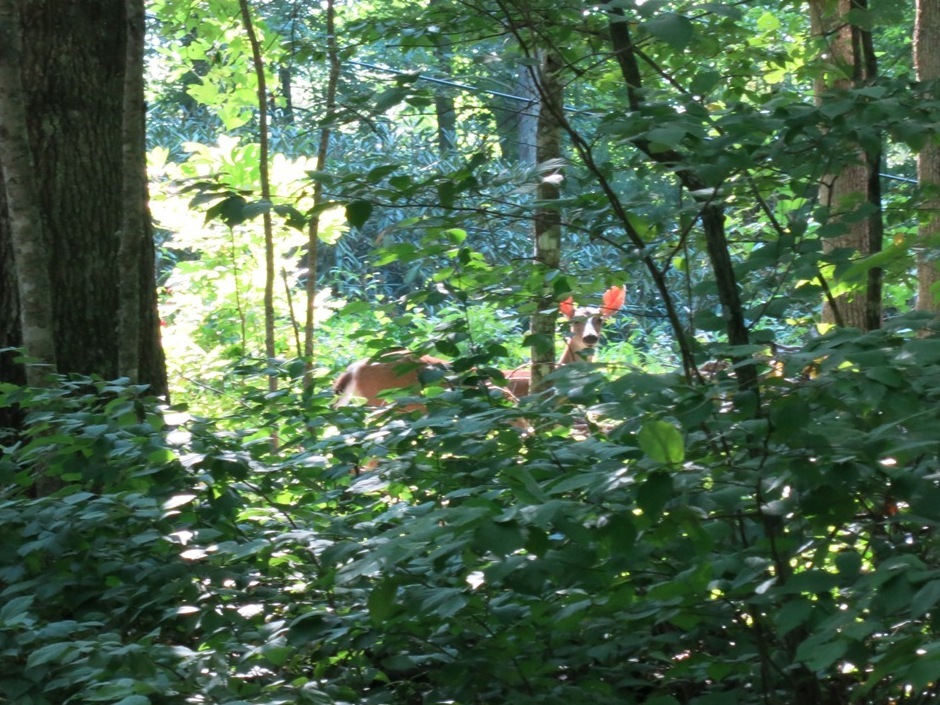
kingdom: Animalia
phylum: Chordata
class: Mammalia
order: Artiodactyla
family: Cervidae
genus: Odocoileus
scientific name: Odocoileus virginianus
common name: White-tailed deer
